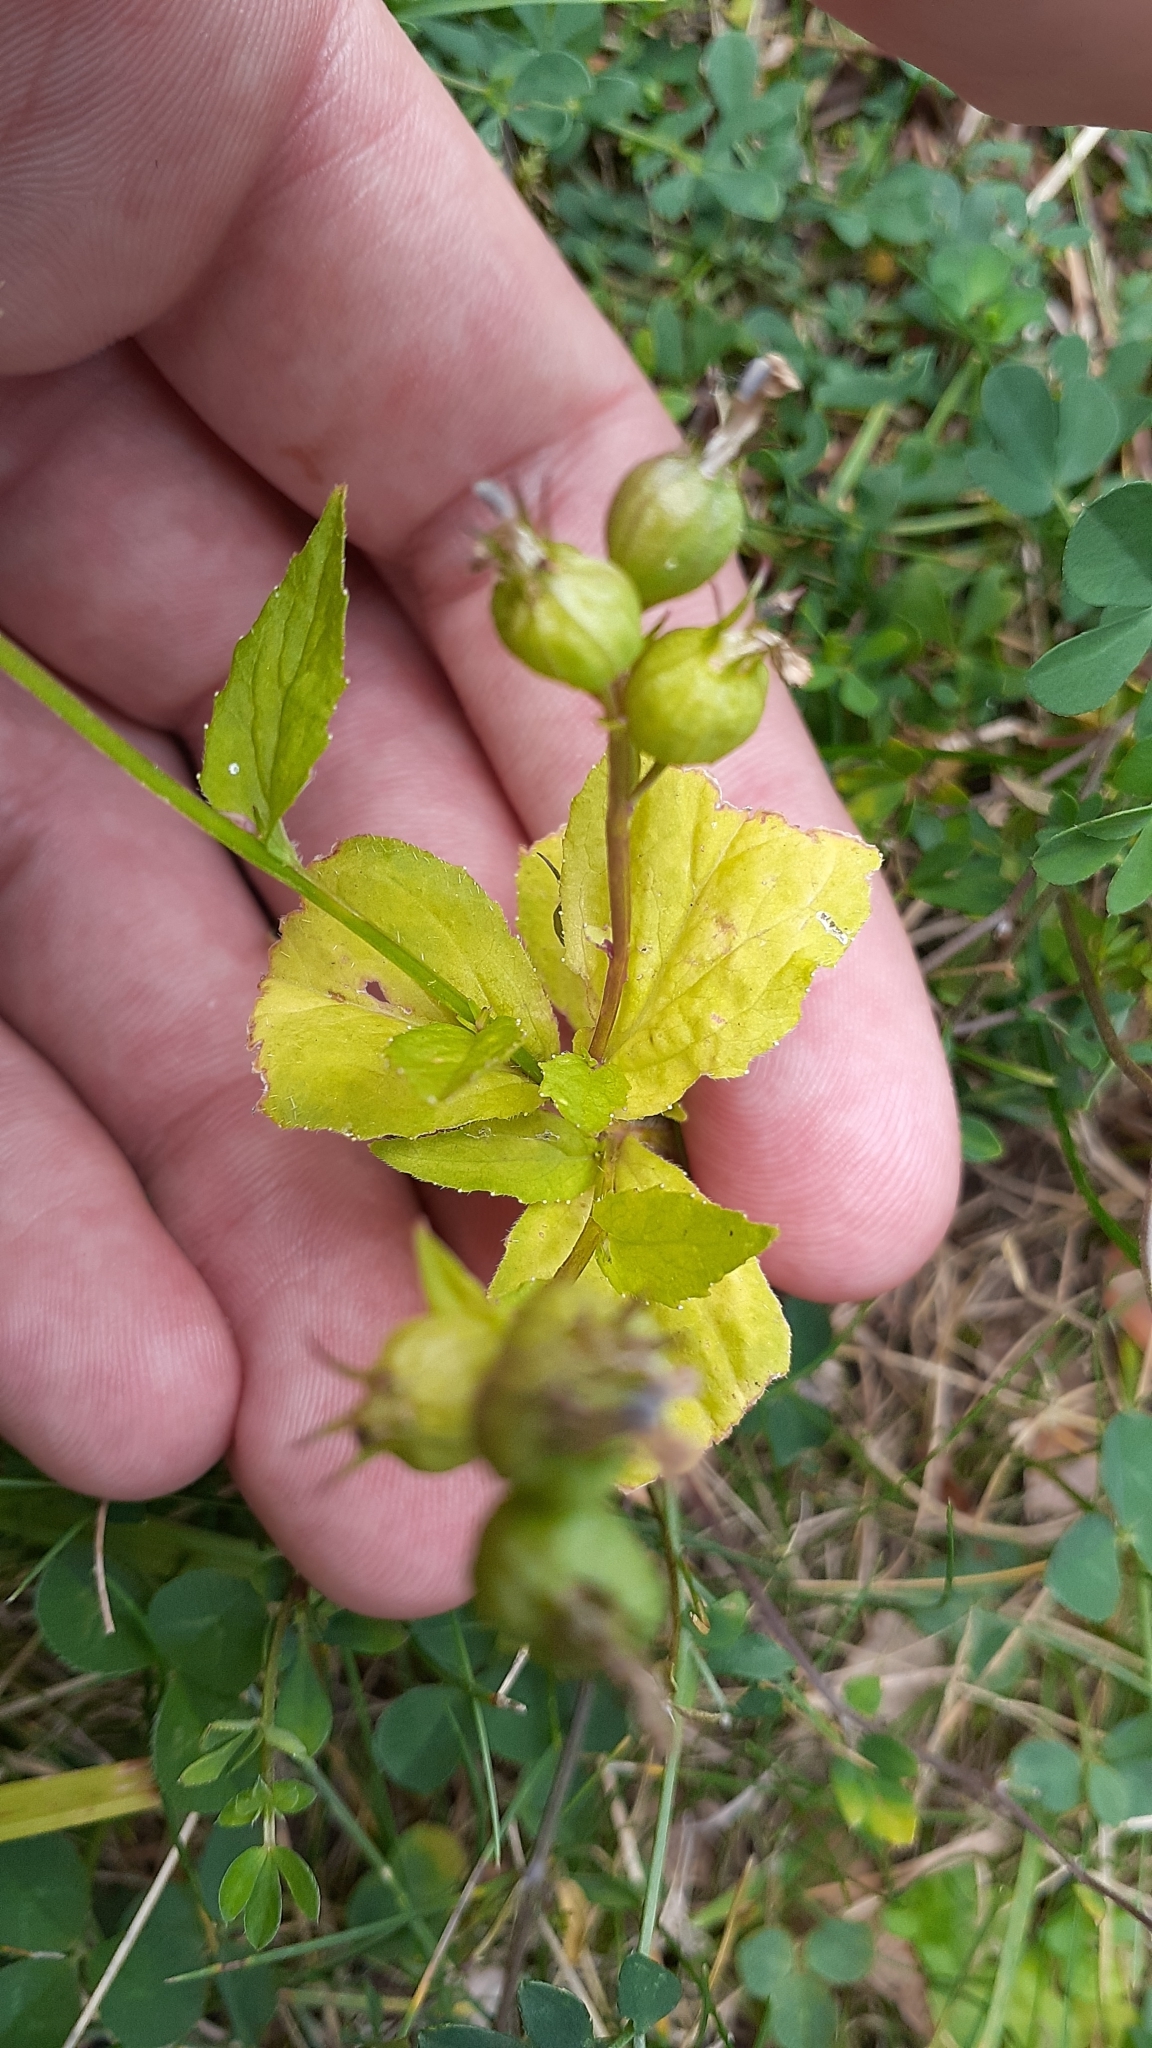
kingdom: Plantae
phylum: Tracheophyta
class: Magnoliopsida
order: Asterales
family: Campanulaceae
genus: Lobelia
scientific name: Lobelia inflata
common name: Indian tobacco
